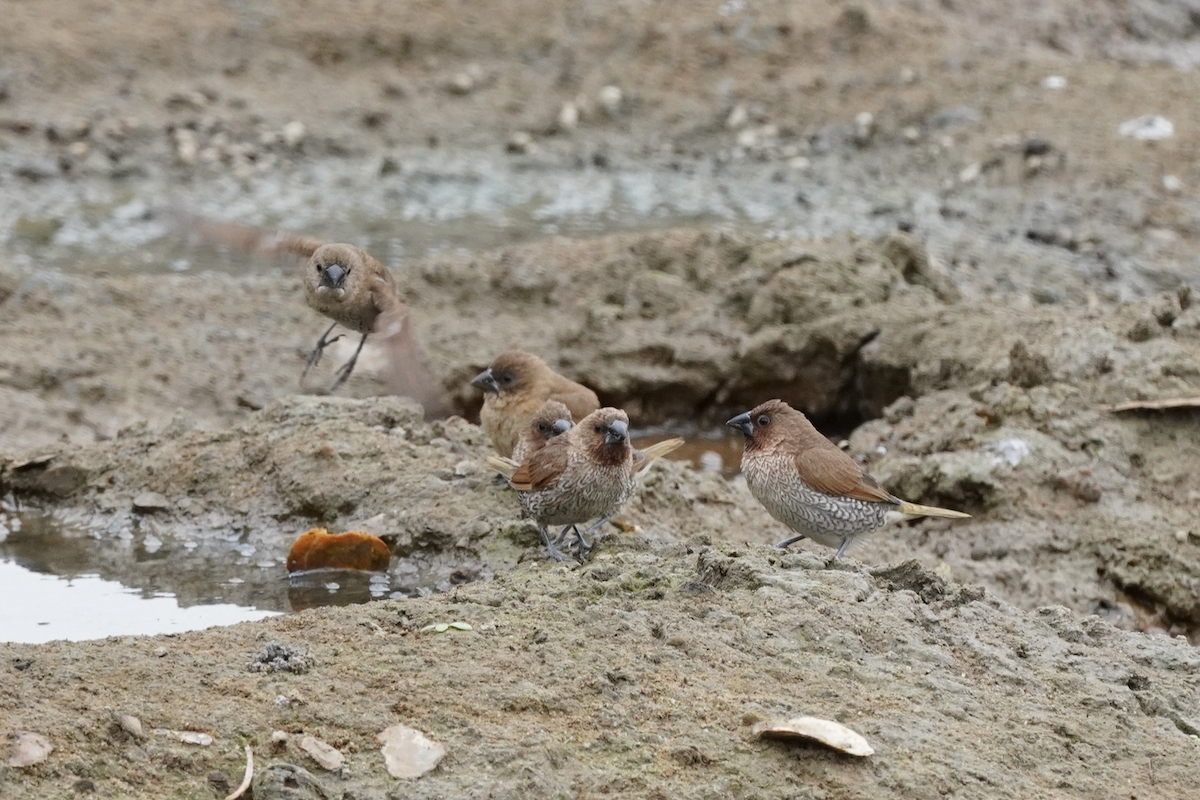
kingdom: Animalia
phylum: Chordata
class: Aves
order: Passeriformes
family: Estrildidae
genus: Lonchura
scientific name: Lonchura punctulata
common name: Scaly-breasted munia
